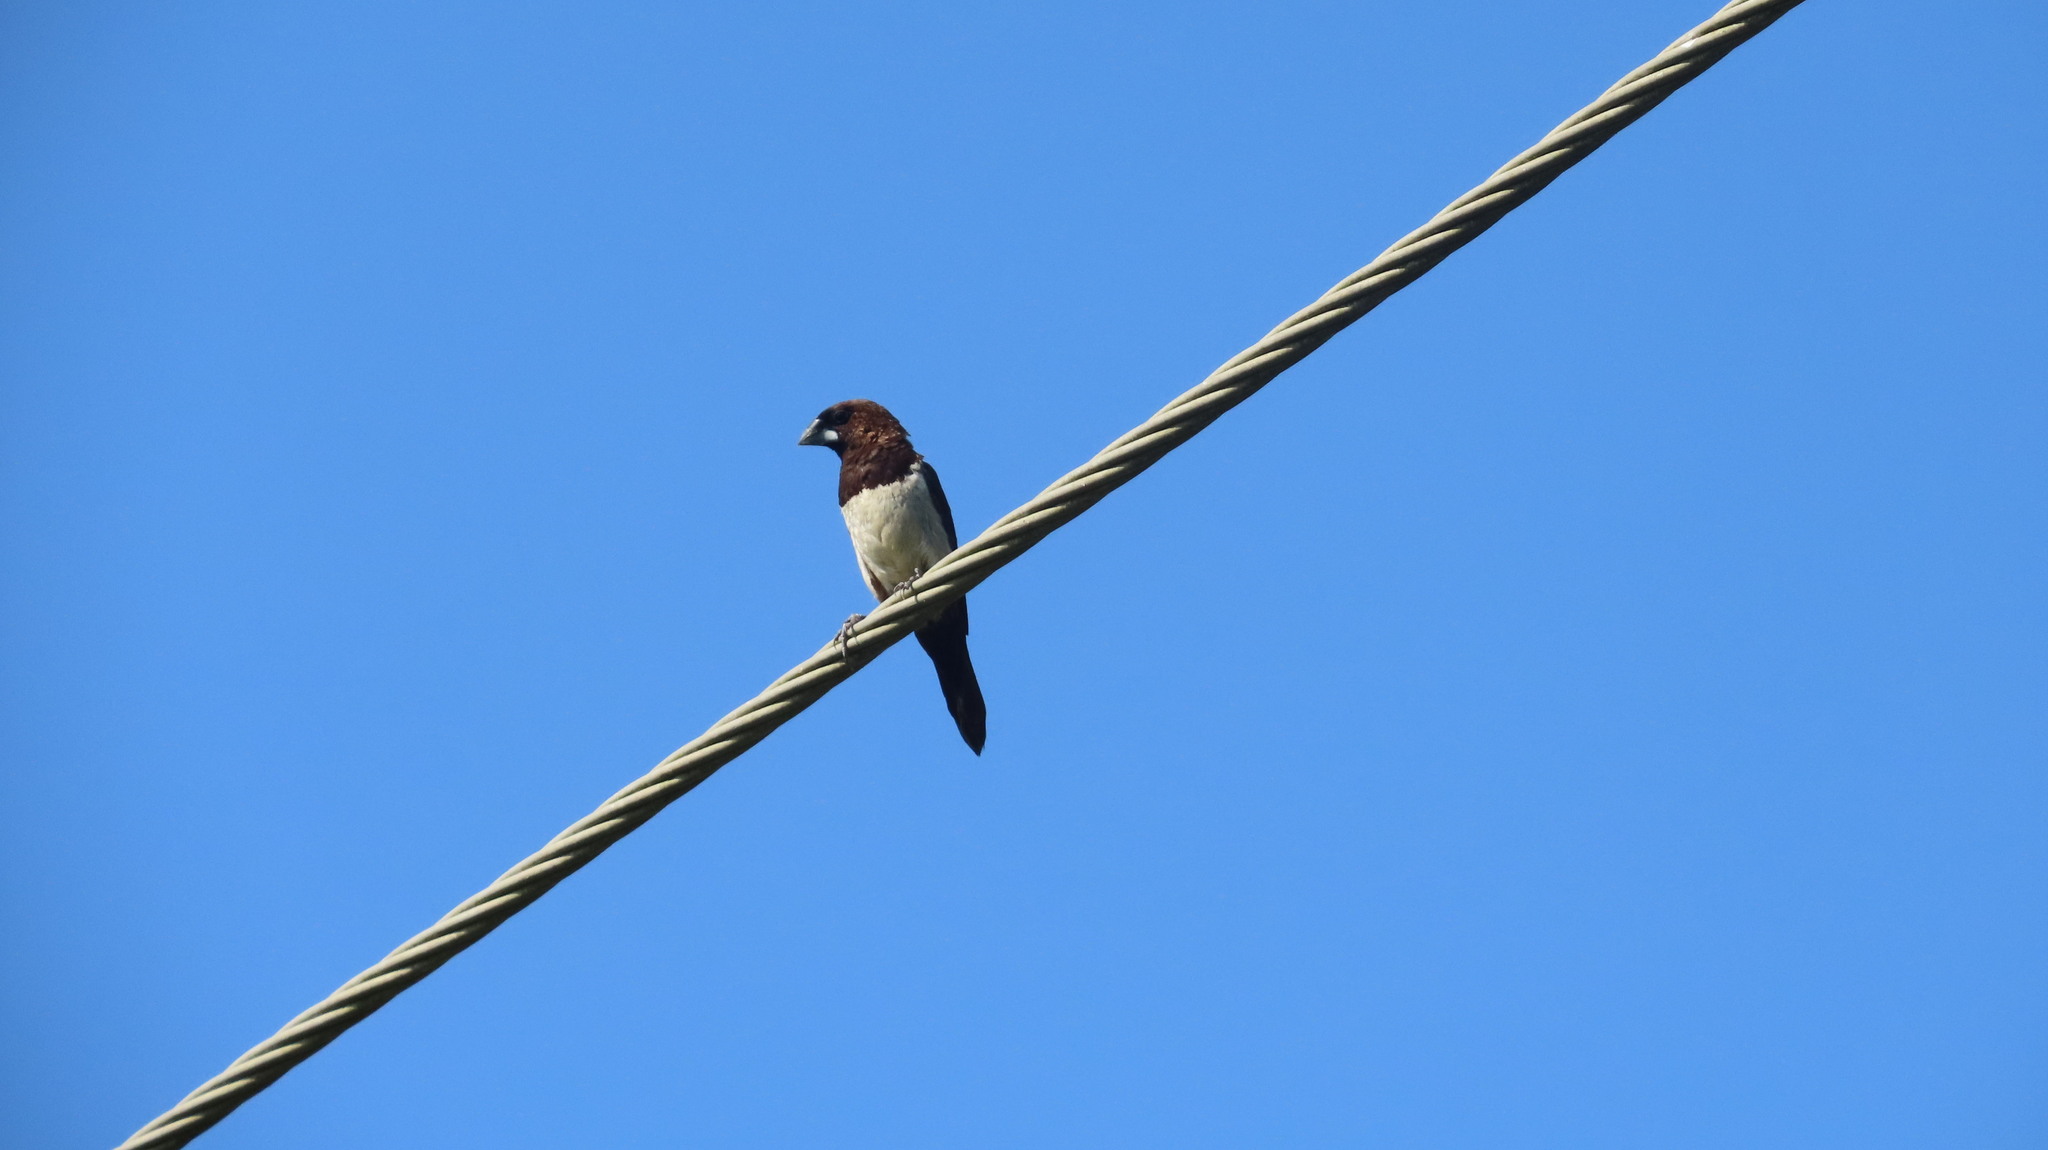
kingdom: Animalia
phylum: Chordata
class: Aves
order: Passeriformes
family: Estrildidae
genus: Lonchura
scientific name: Lonchura striata
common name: White-rumped munia
